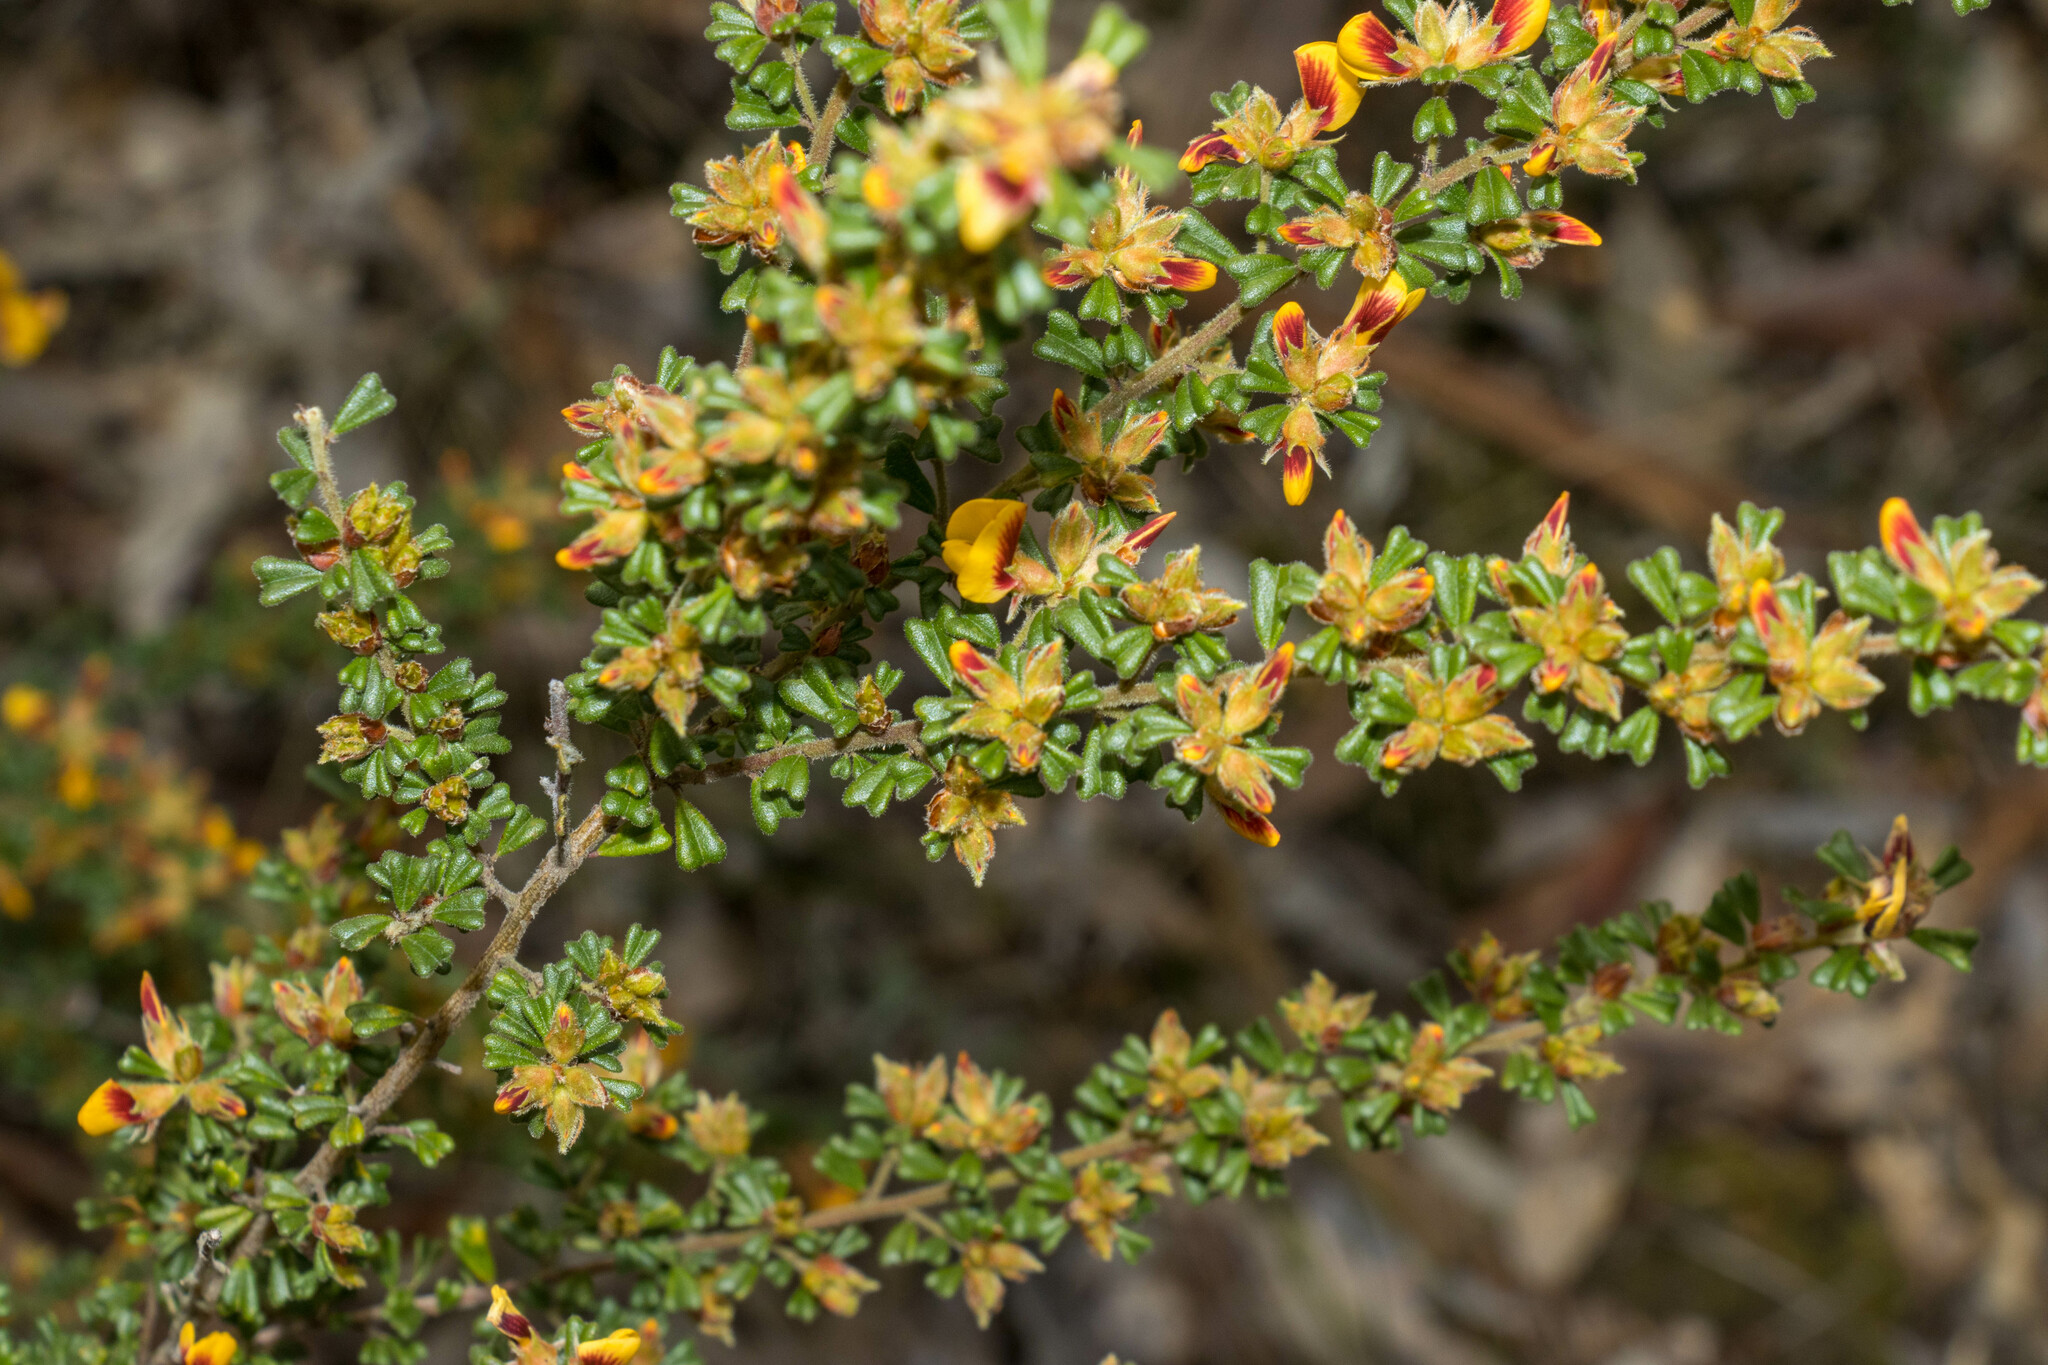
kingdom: Plantae
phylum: Tracheophyta
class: Magnoliopsida
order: Fabales
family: Fabaceae
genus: Pultenaea
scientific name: Pultenaea scabra
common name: Rough bush-pea
